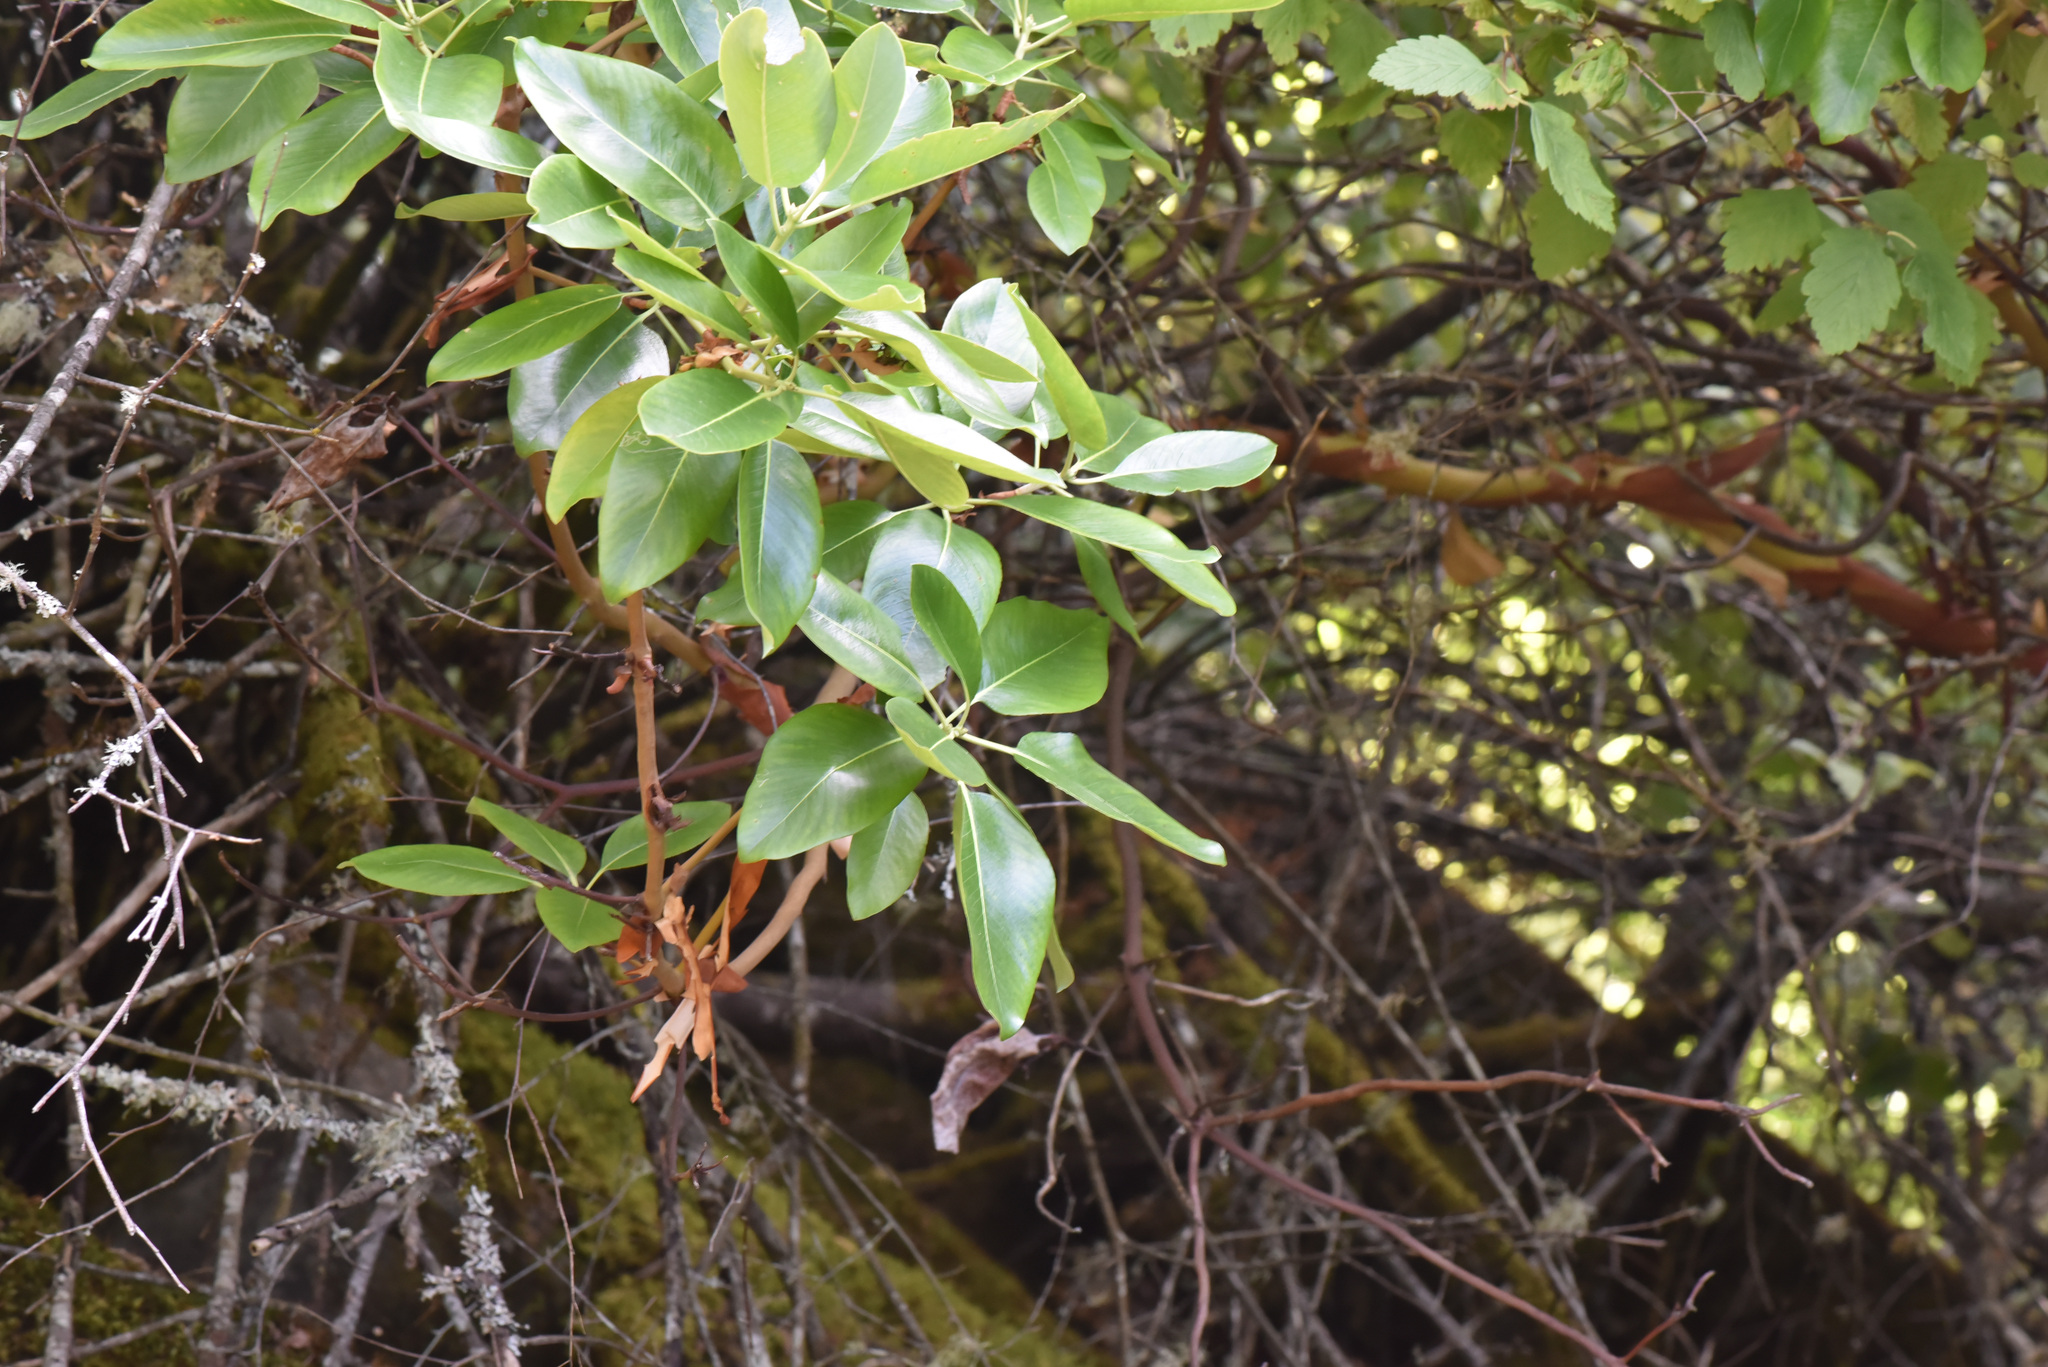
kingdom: Plantae
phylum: Tracheophyta
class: Magnoliopsida
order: Ericales
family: Ericaceae
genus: Arbutus
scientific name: Arbutus menziesii
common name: Pacific madrone
